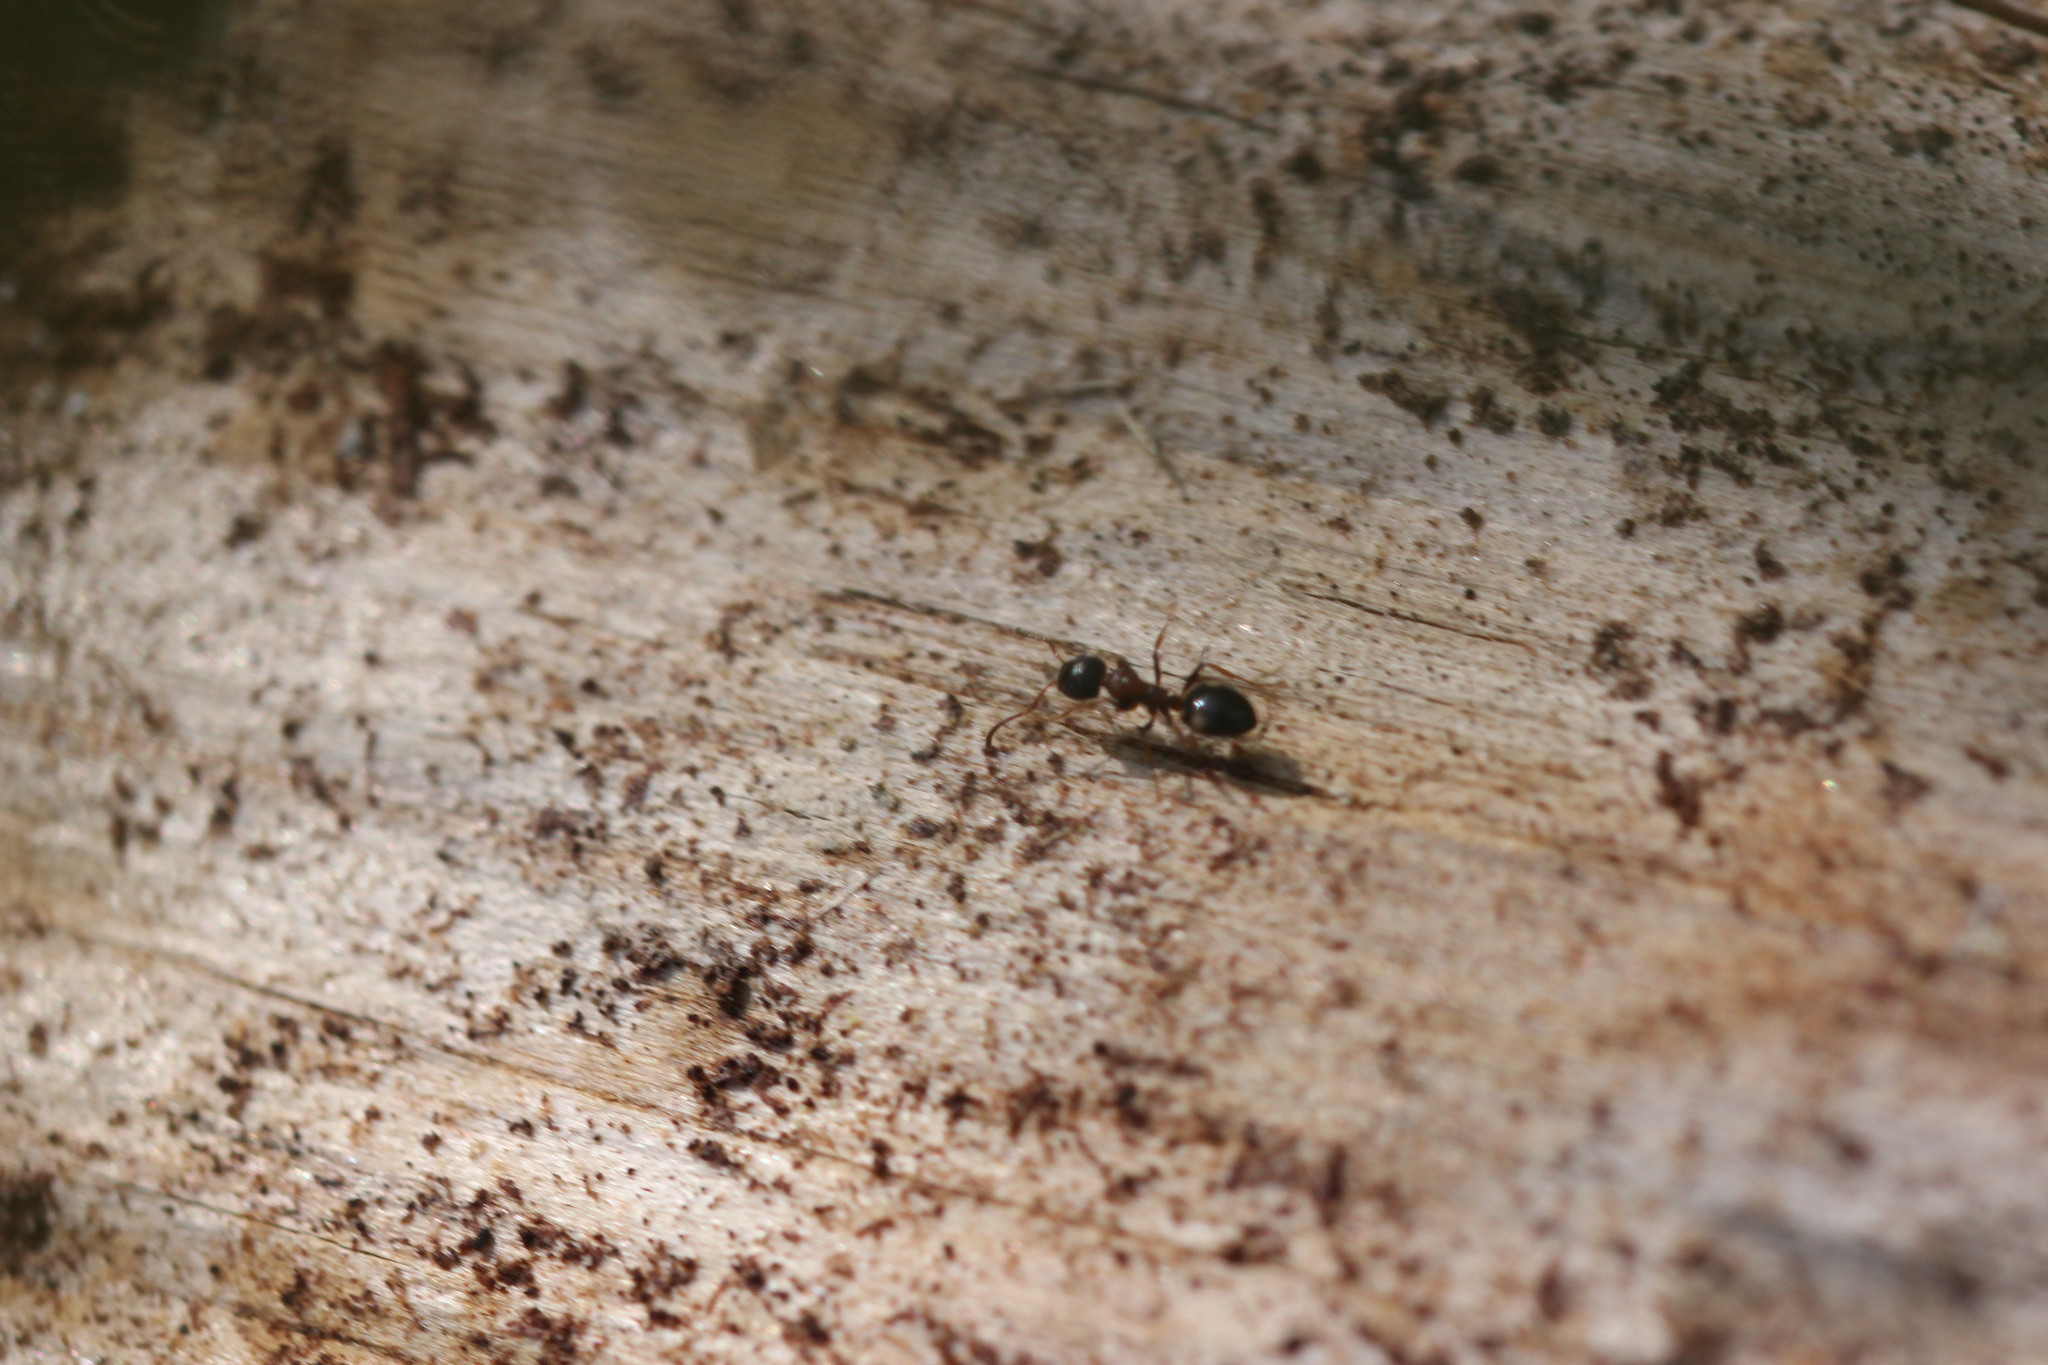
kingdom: Animalia
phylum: Arthropoda
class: Insecta
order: Hymenoptera
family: Formicidae
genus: Dolichoderus
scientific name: Dolichoderus quadripunctatus
